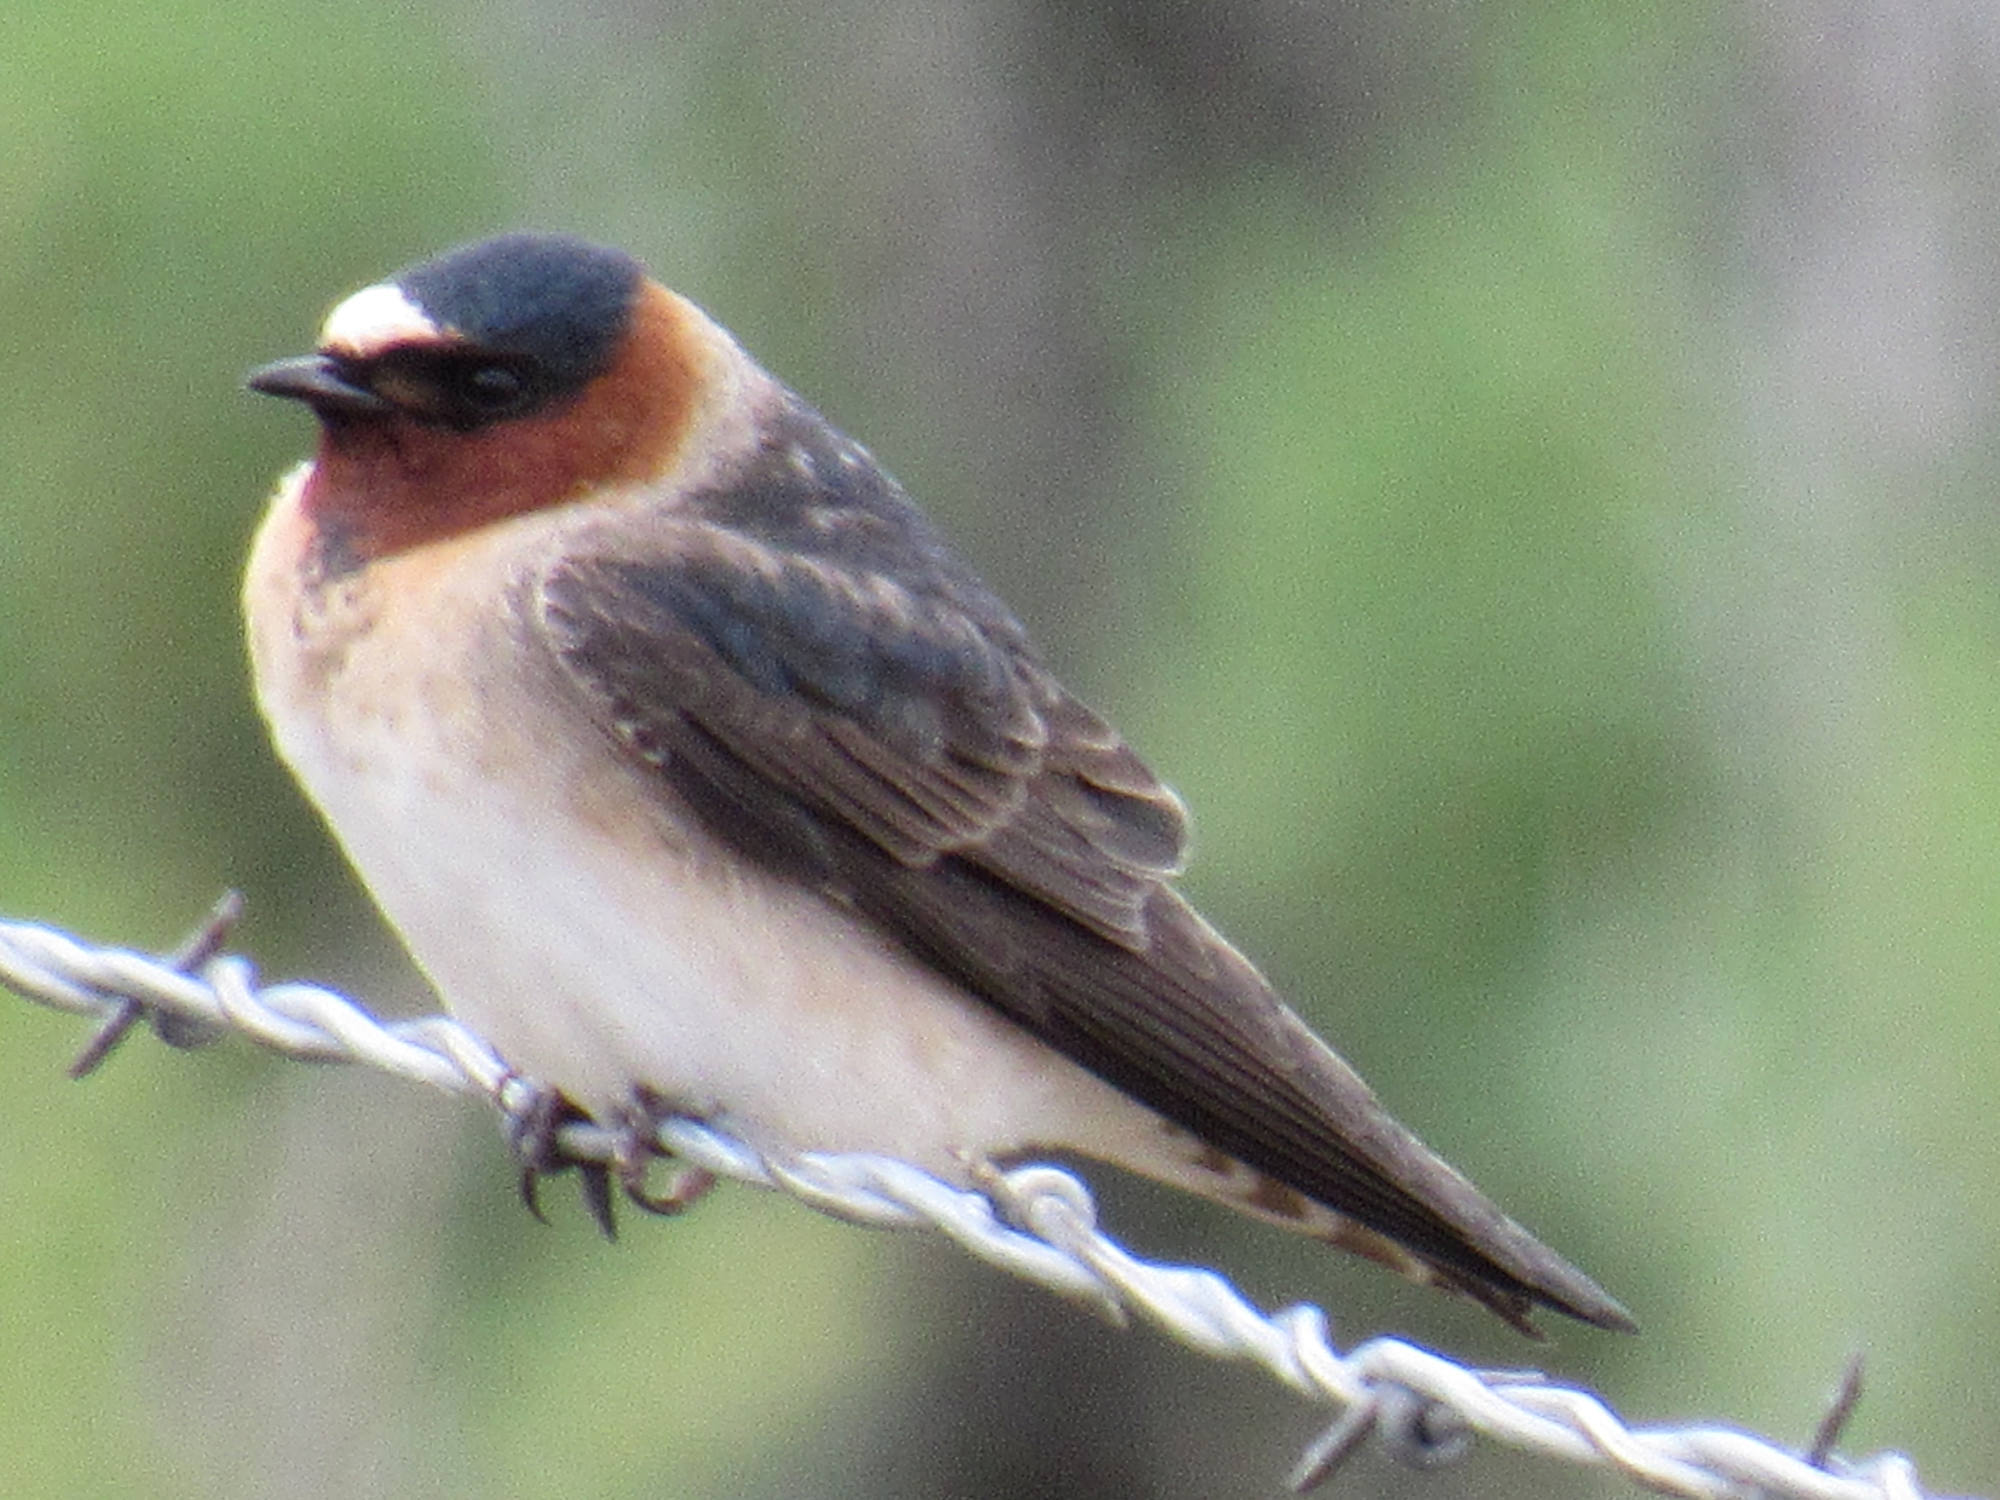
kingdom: Animalia
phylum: Chordata
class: Aves
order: Passeriformes
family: Hirundinidae
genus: Petrochelidon
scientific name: Petrochelidon pyrrhonota
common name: American cliff swallow
